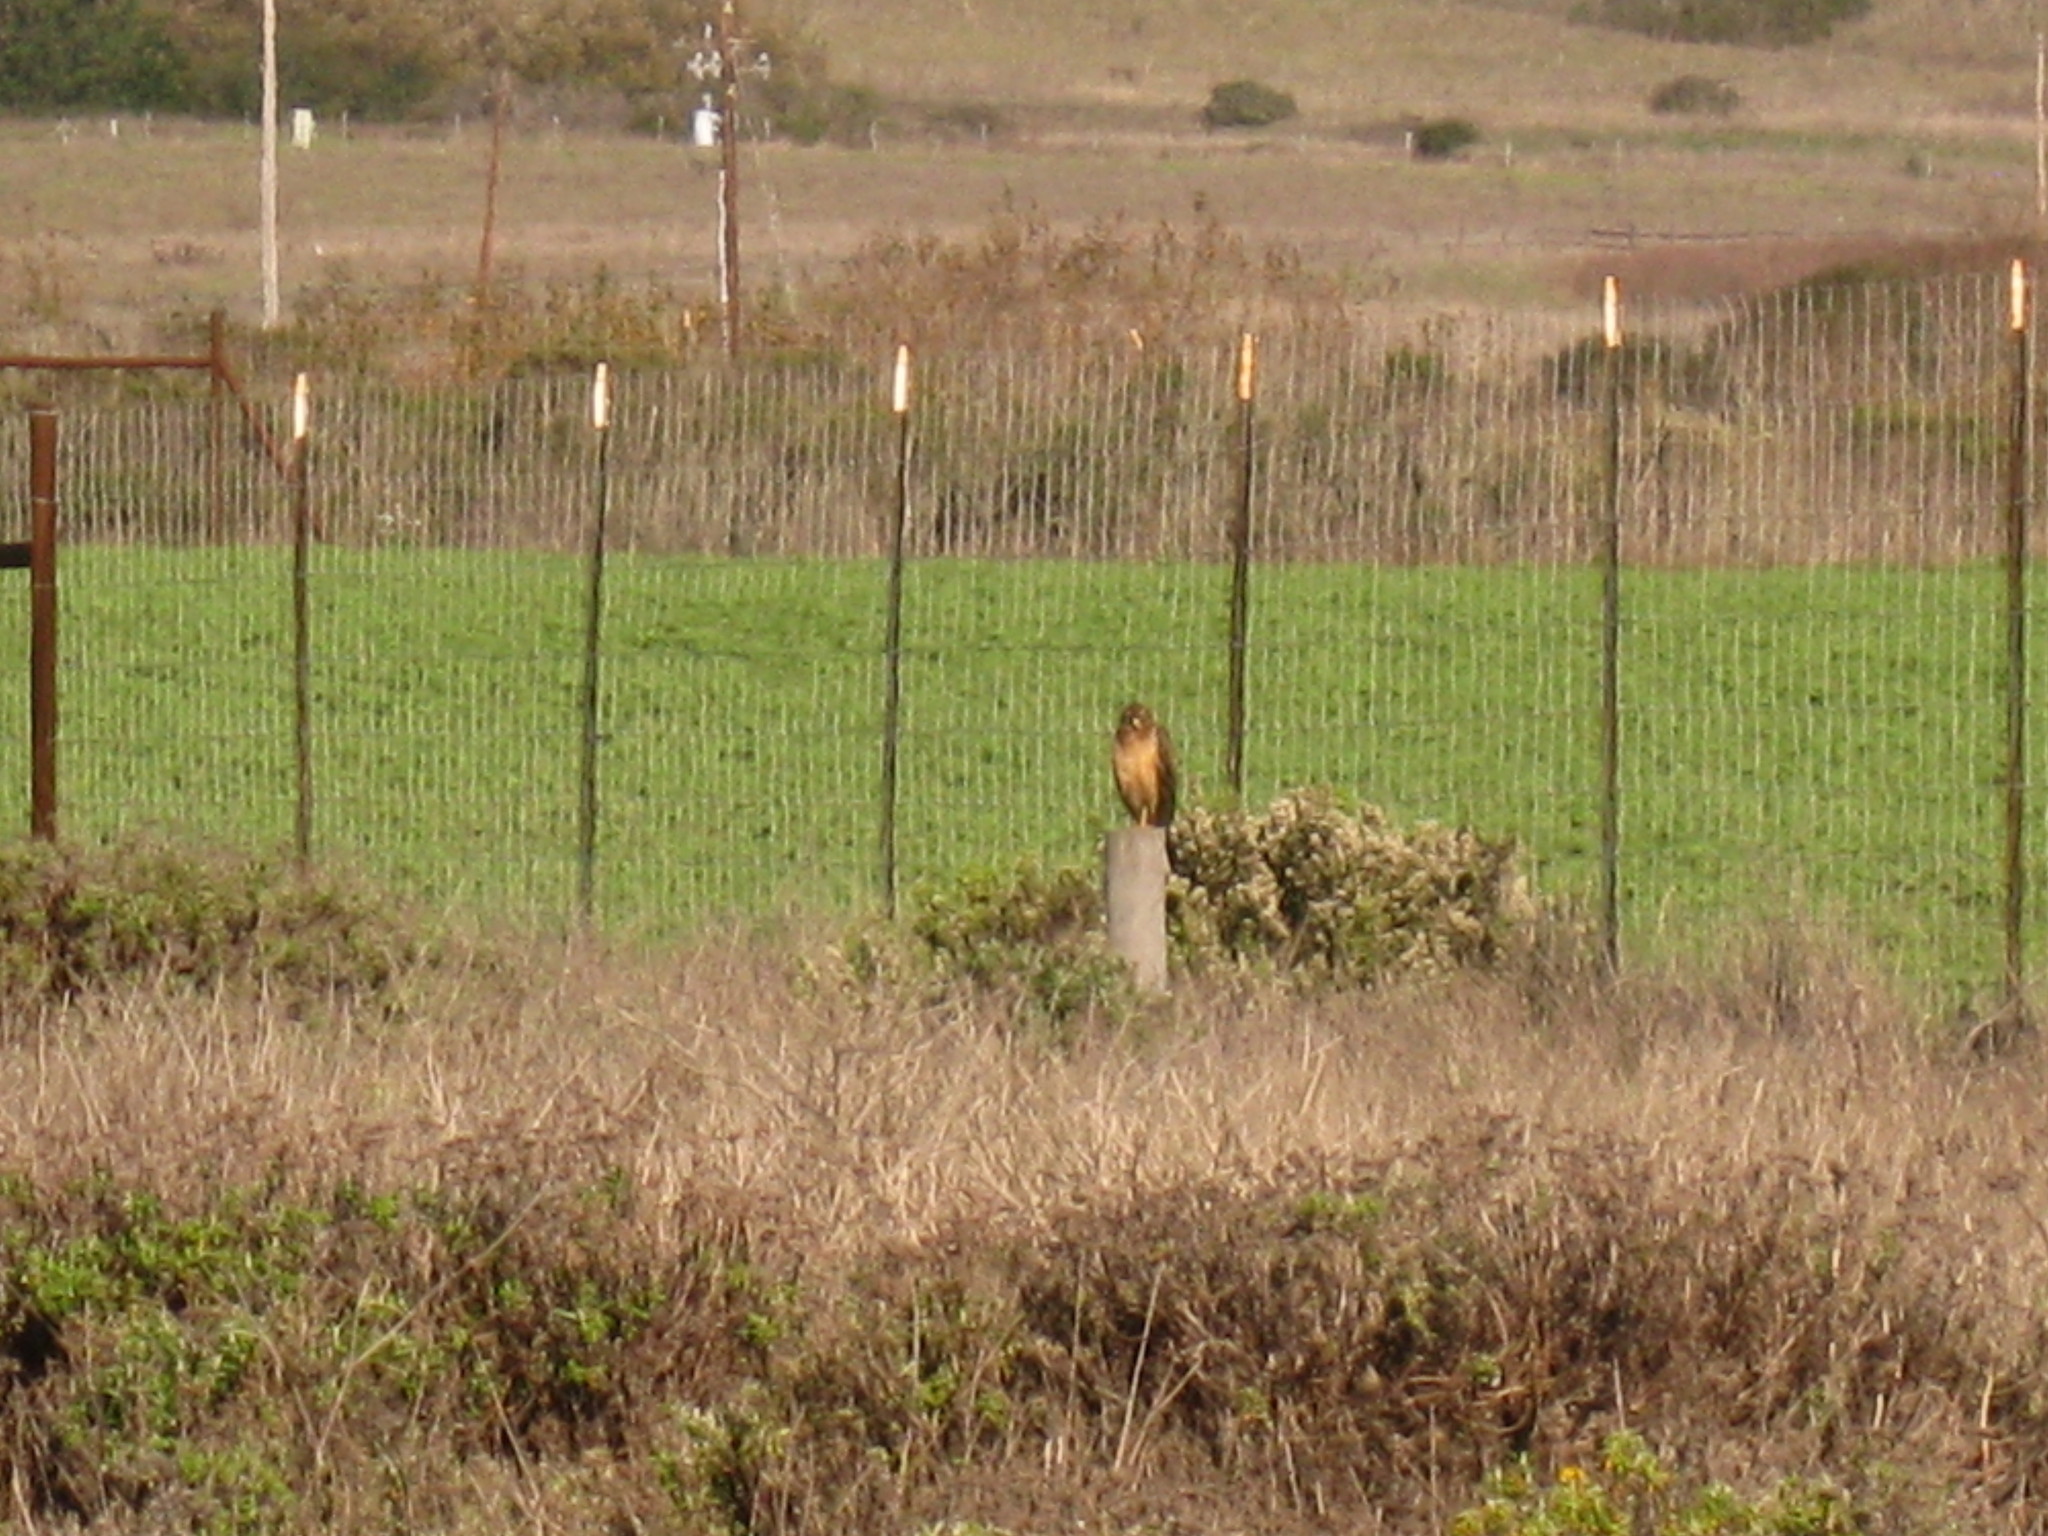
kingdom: Animalia
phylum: Chordata
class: Aves
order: Accipitriformes
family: Accipitridae
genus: Circus
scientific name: Circus cyaneus
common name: Hen harrier
